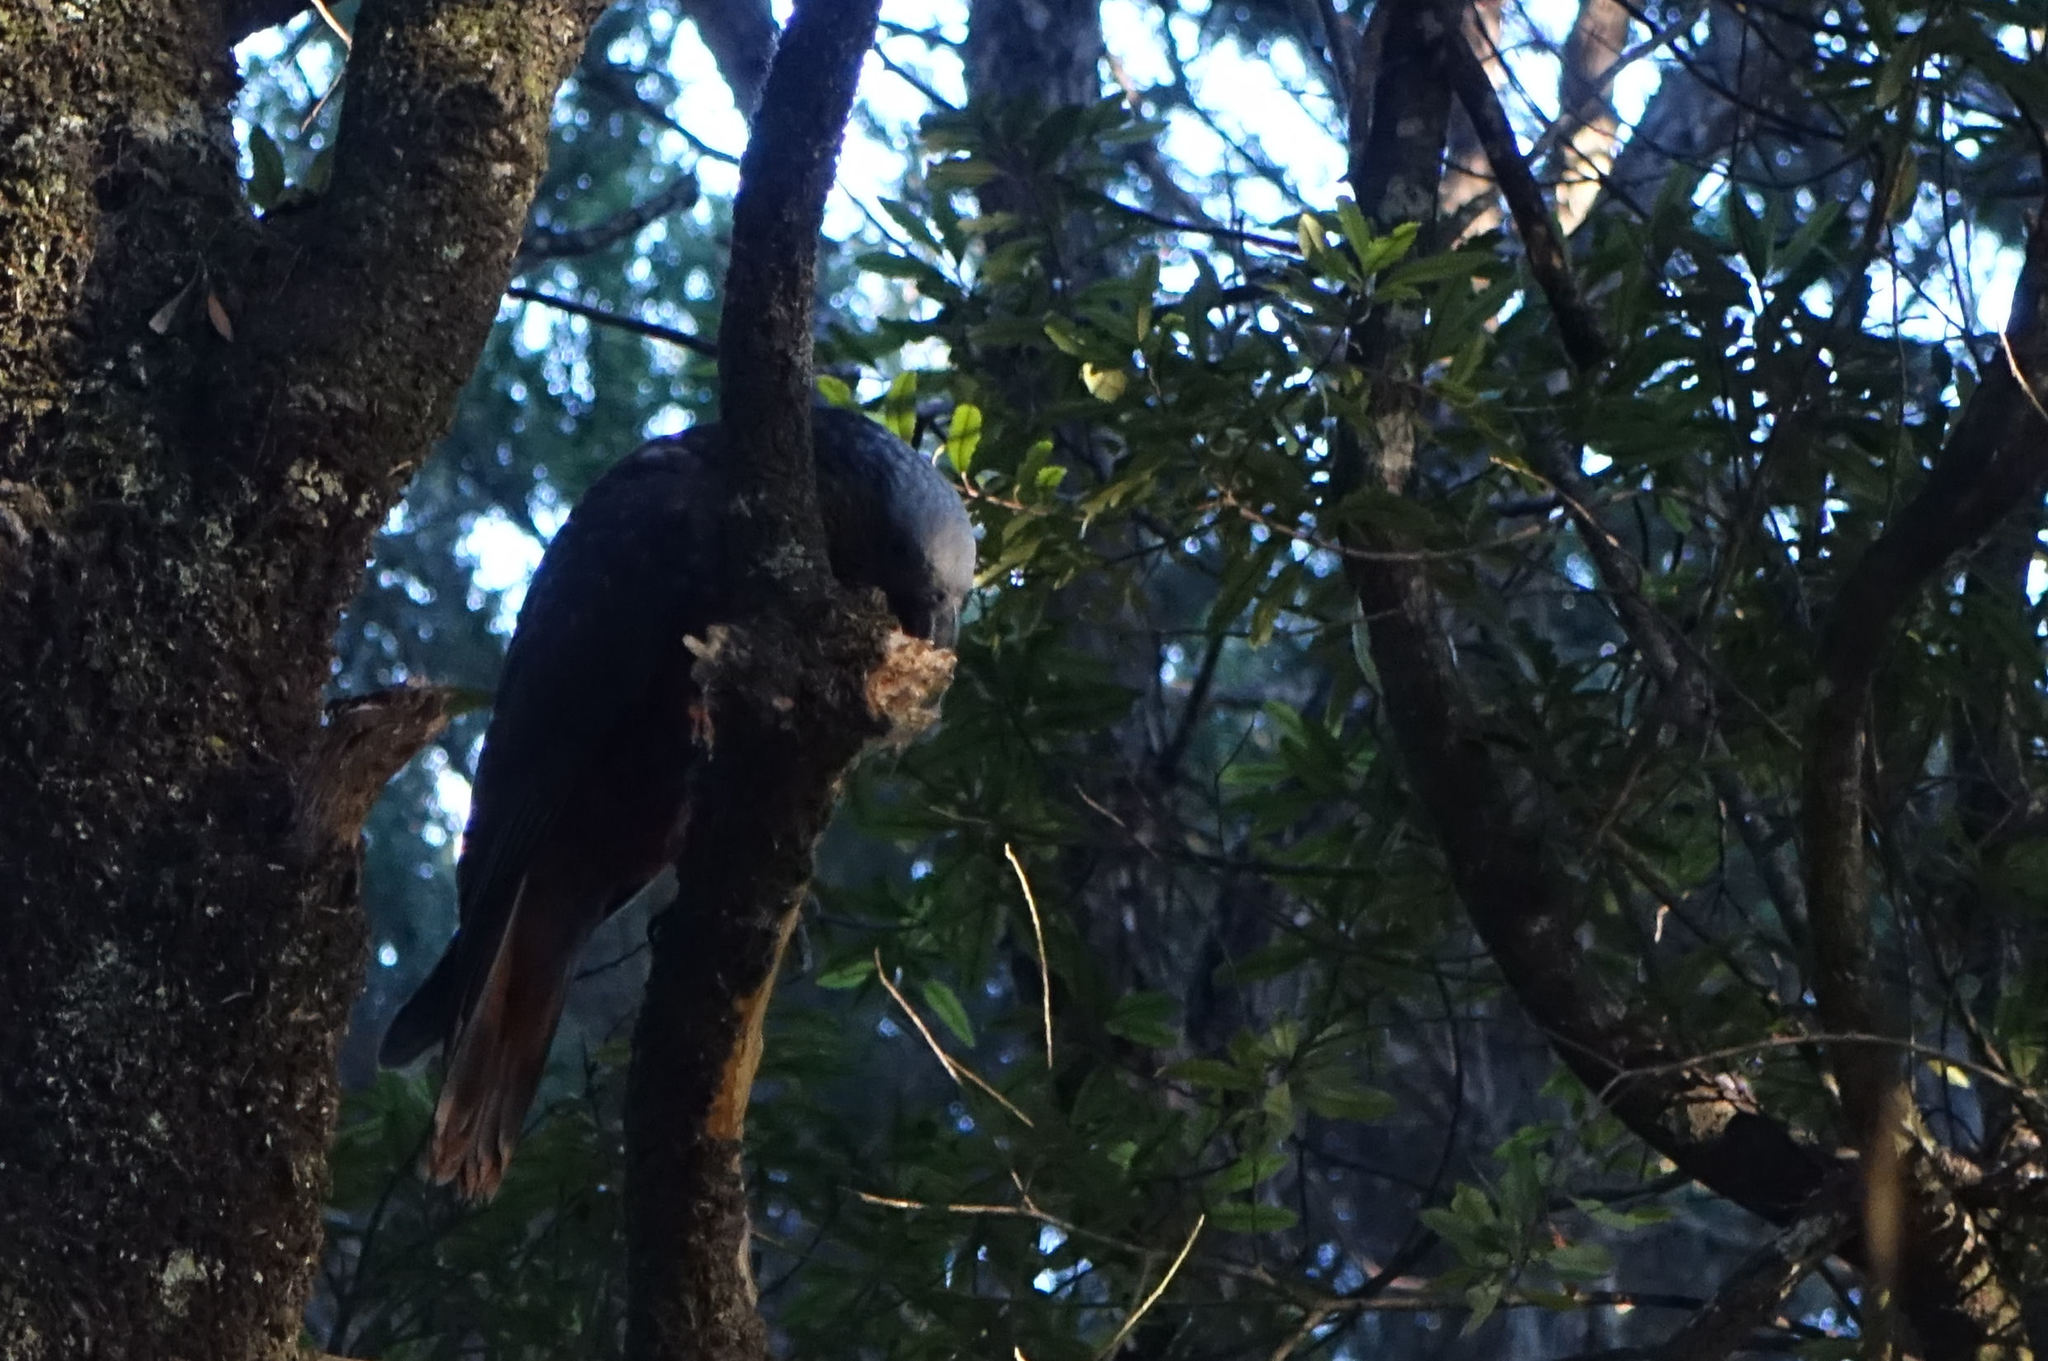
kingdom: Animalia
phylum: Chordata
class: Aves
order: Psittaciformes
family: Psittacidae
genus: Nestor
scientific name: Nestor meridionalis
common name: New zealand kaka
